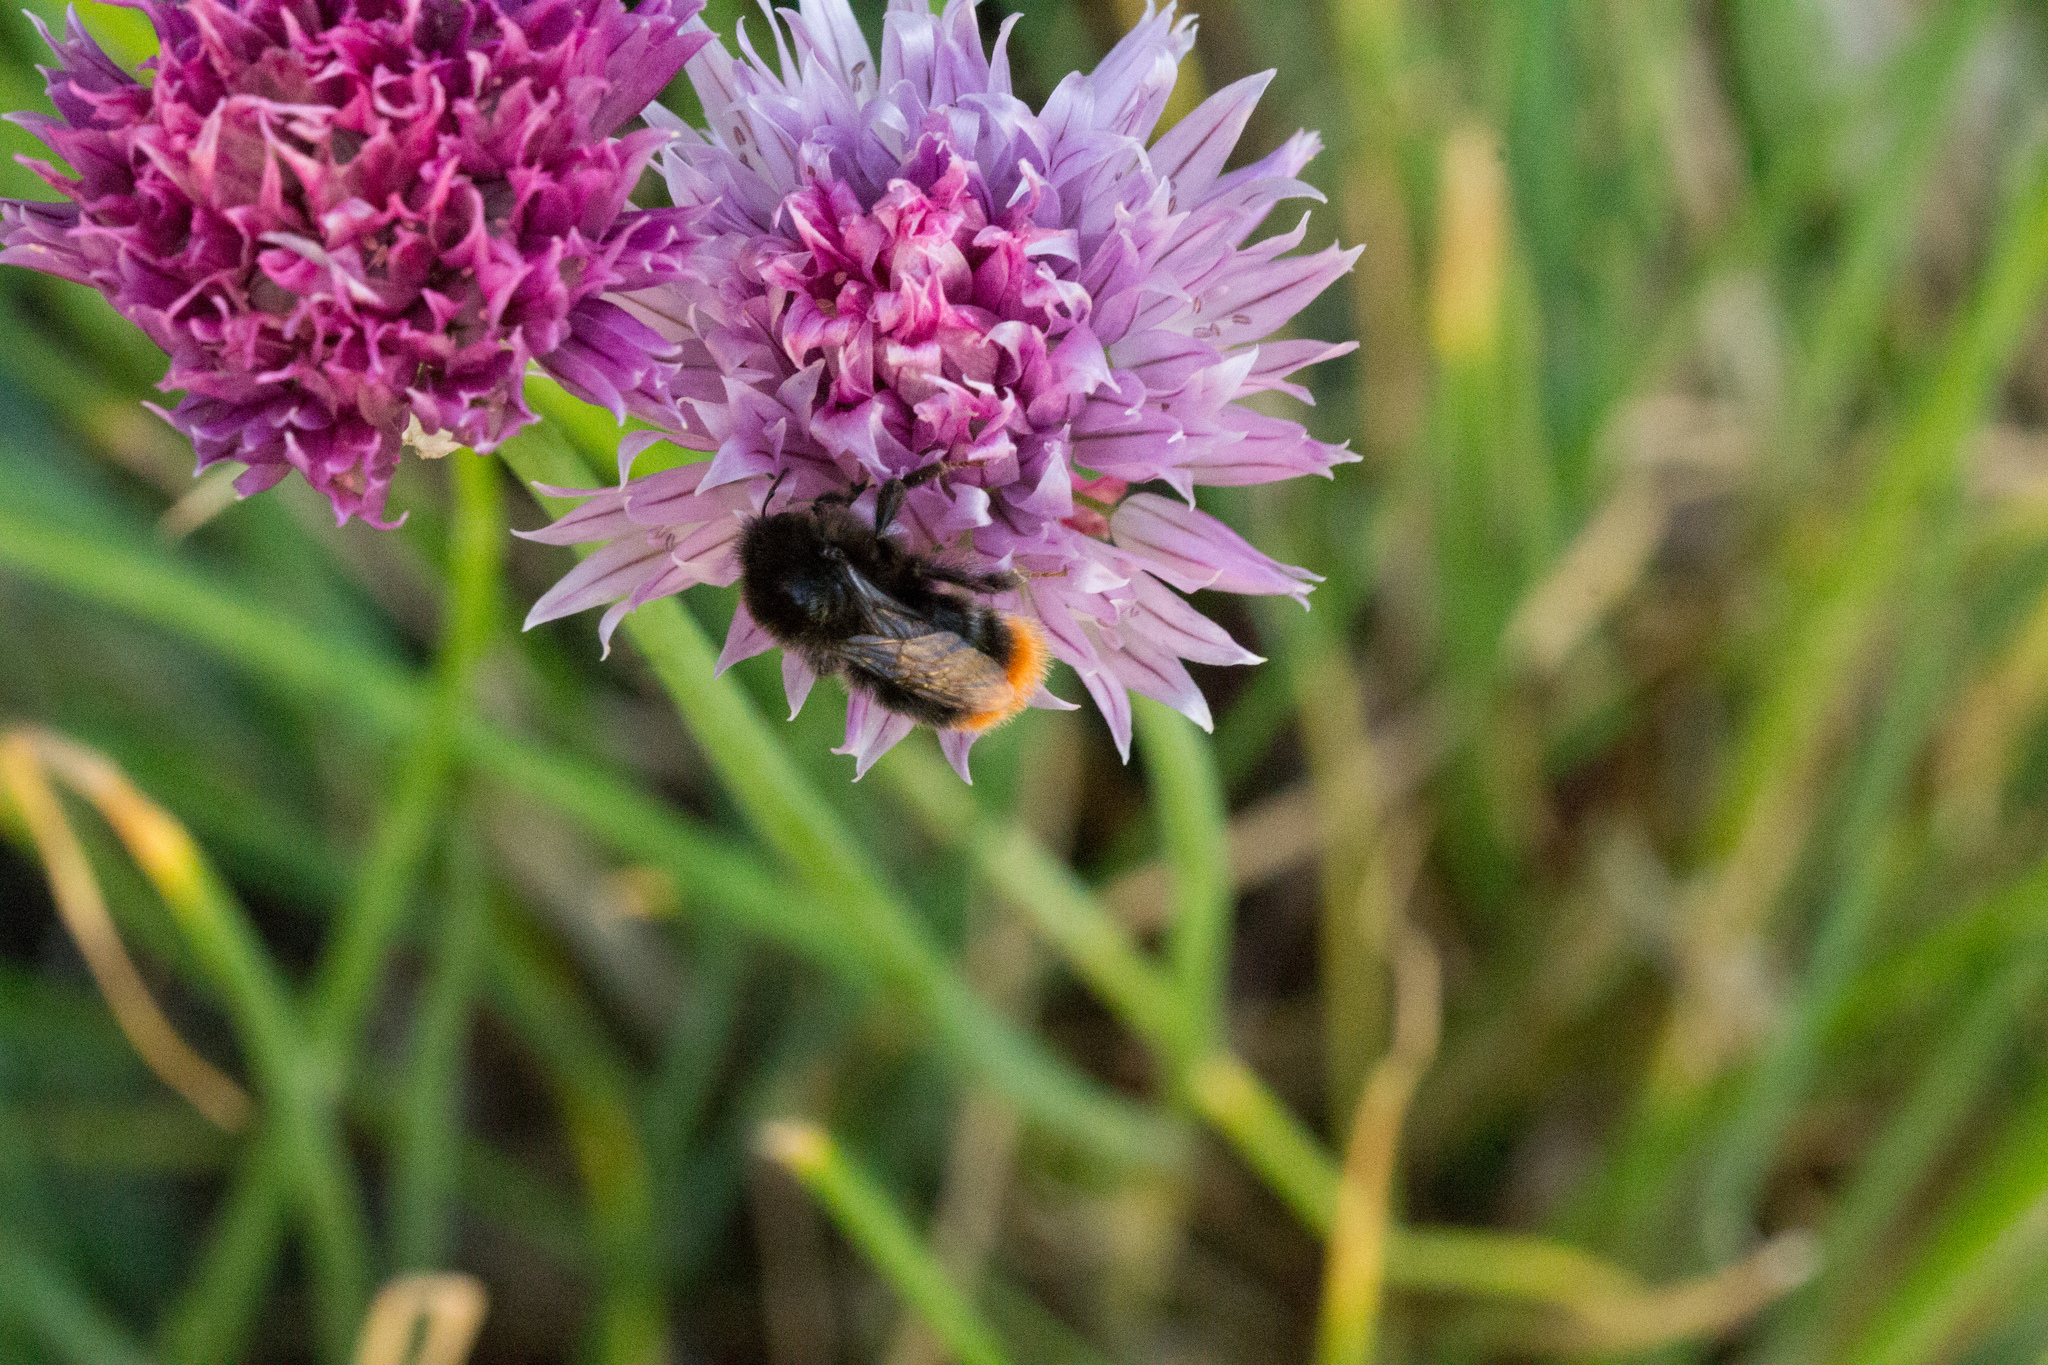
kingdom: Animalia
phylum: Arthropoda
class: Insecta
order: Hymenoptera
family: Apidae
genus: Bombus
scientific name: Bombus lapidarius
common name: Large red-tailed humble-bee
